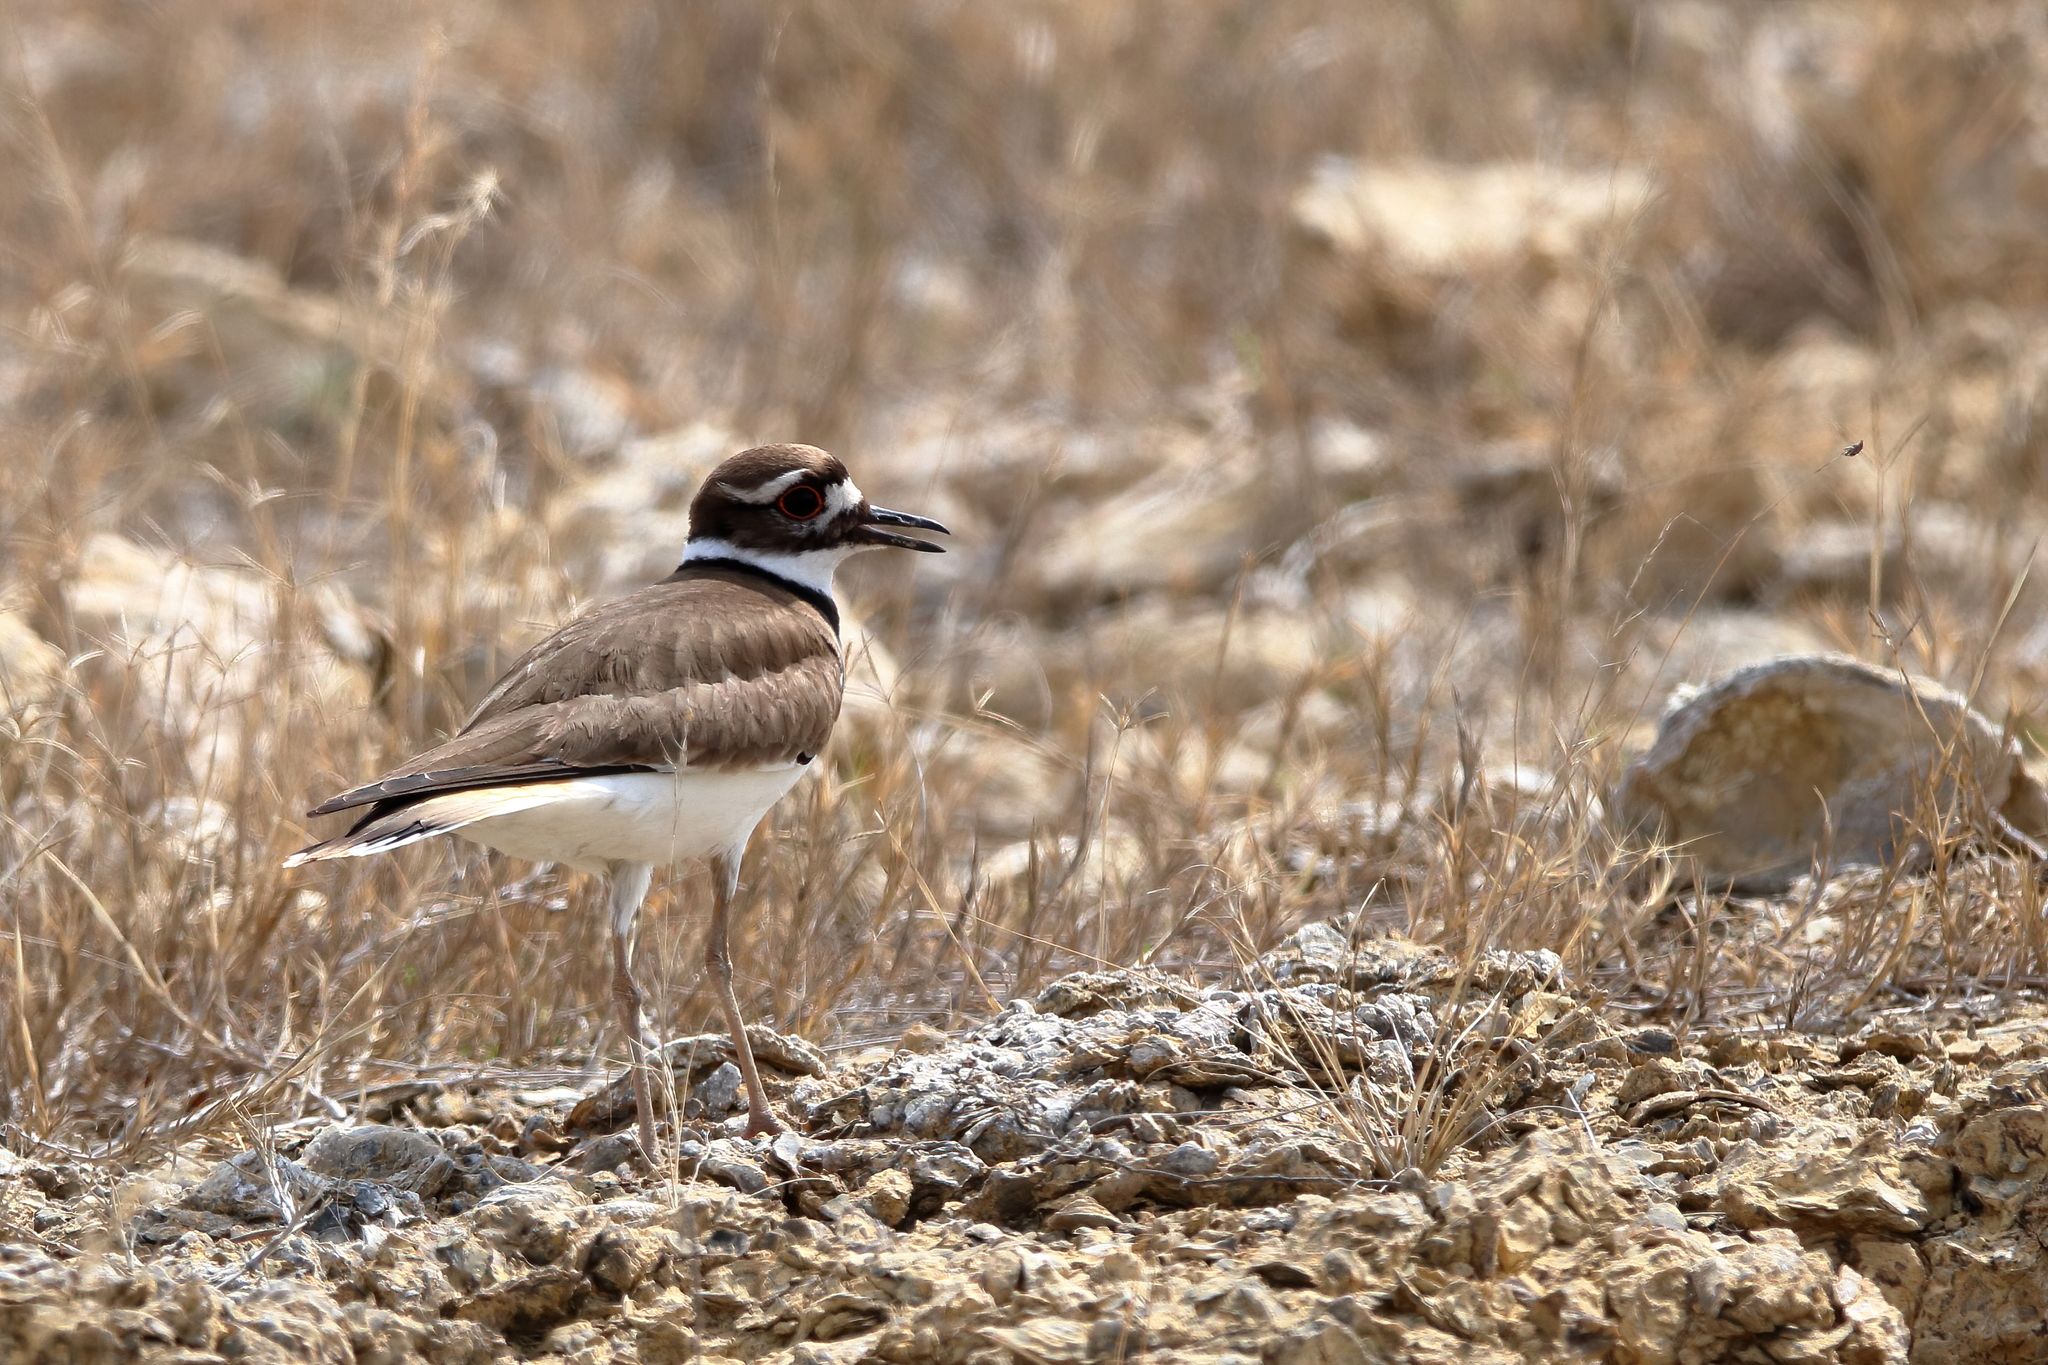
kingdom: Animalia
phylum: Chordata
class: Aves
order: Charadriiformes
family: Charadriidae
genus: Charadrius
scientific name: Charadrius vociferus
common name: Killdeer
